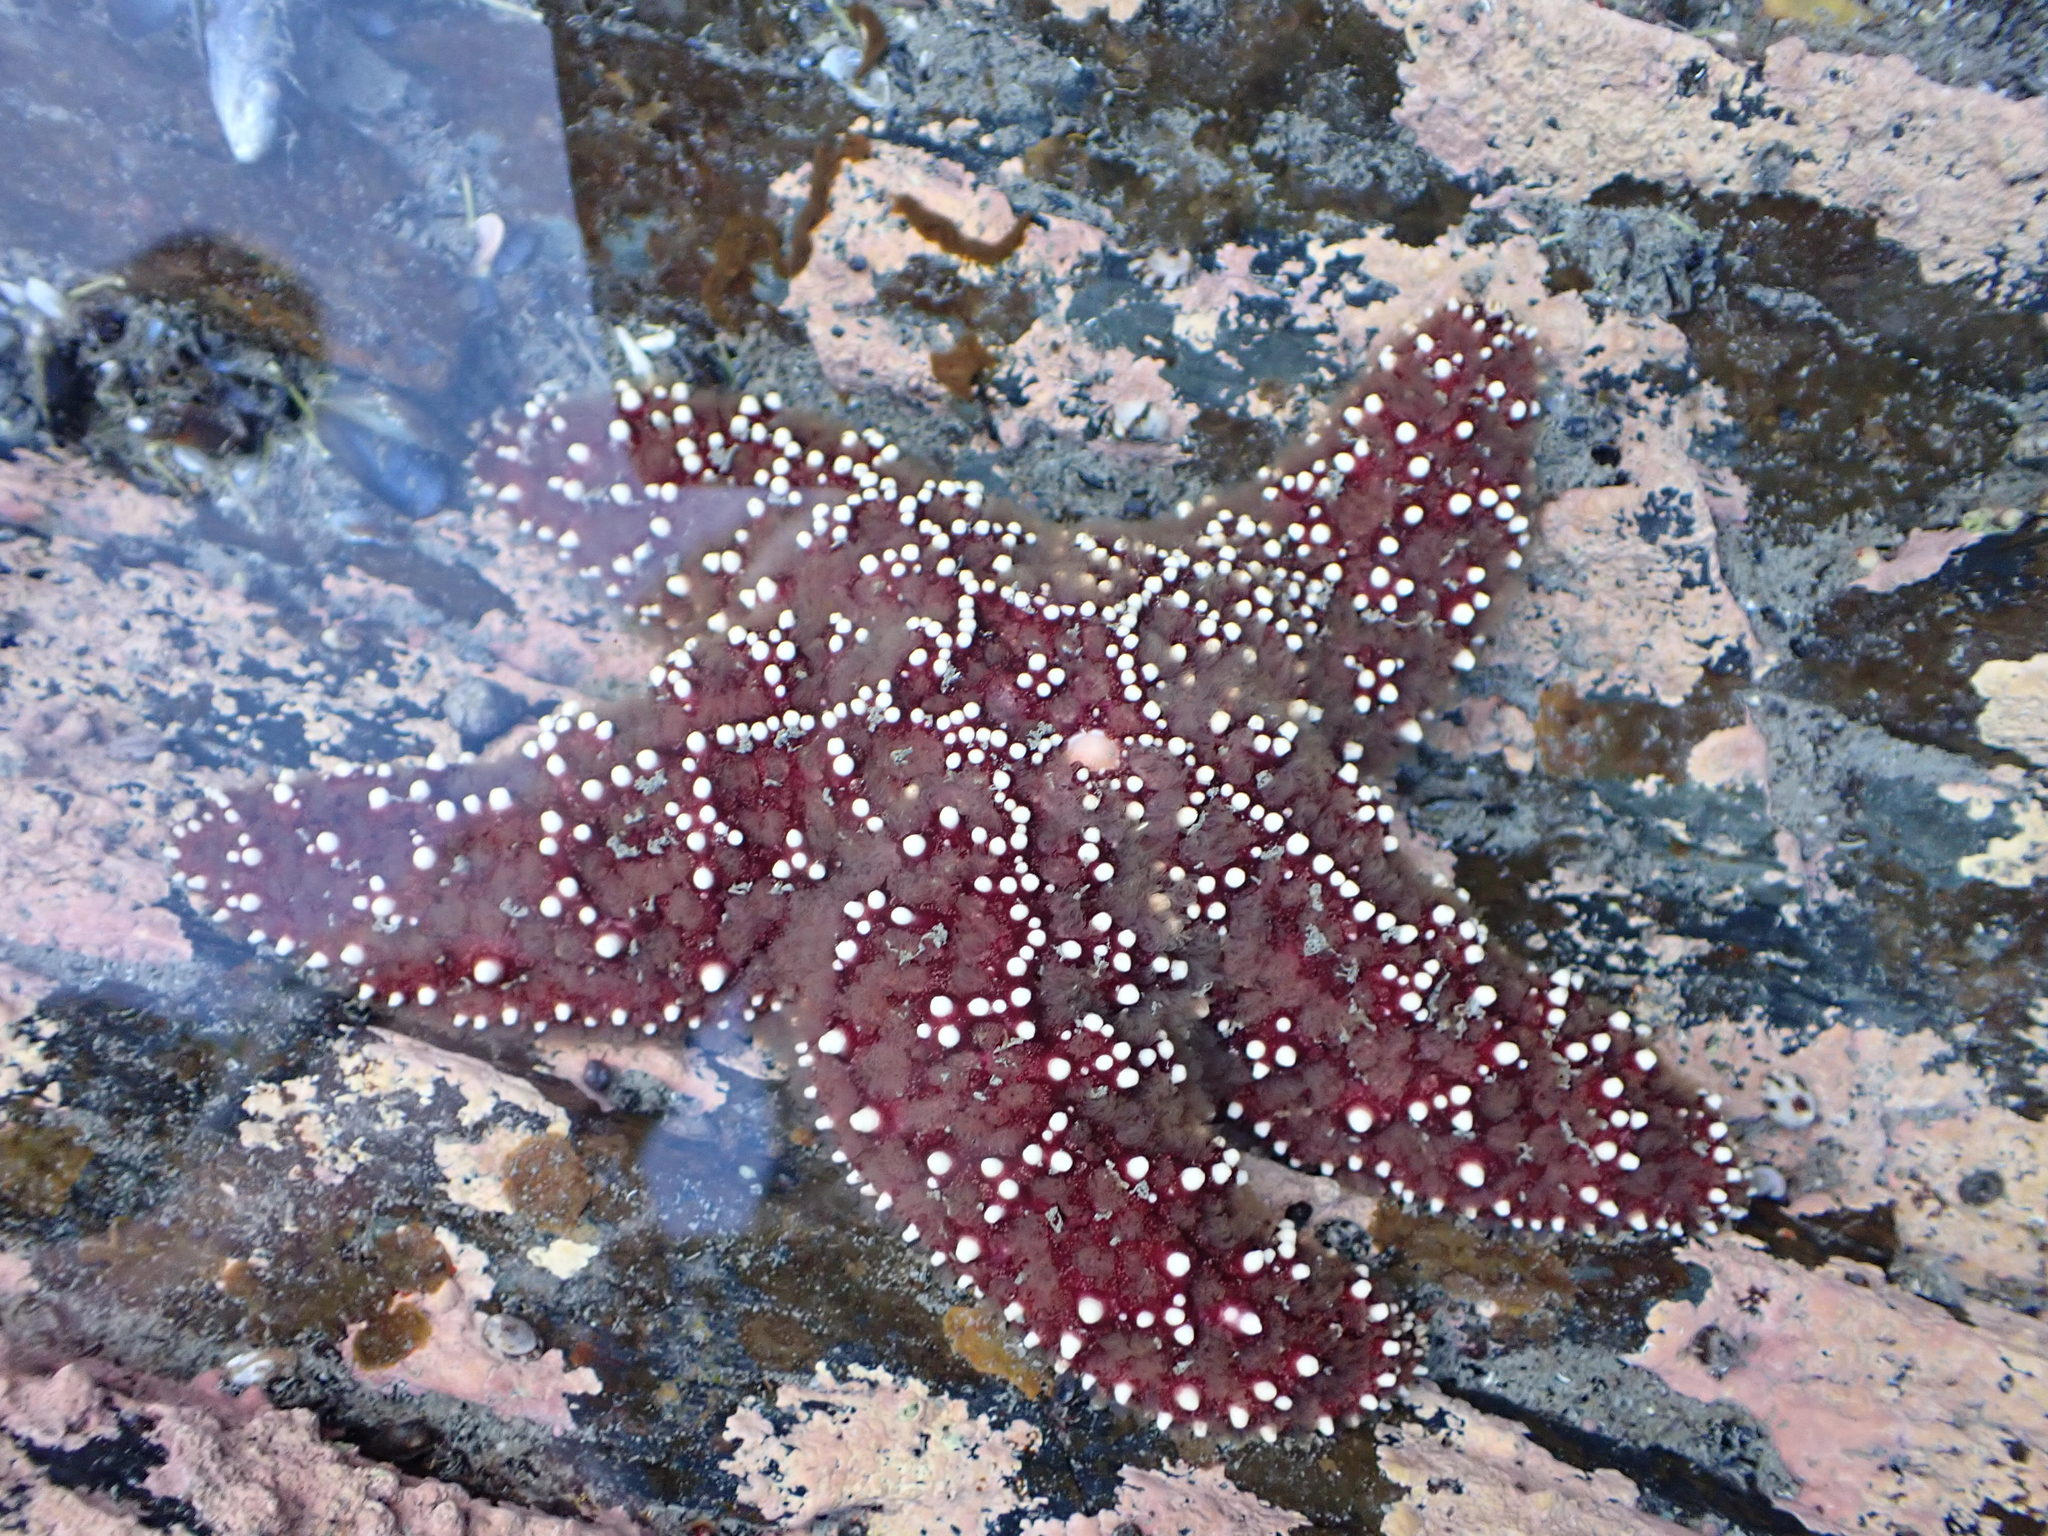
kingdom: Animalia
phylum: Echinodermata
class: Asteroidea
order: Forcipulatida
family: Asteriidae
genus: Pisaster
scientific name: Pisaster ochraceus
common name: Ochre stars
